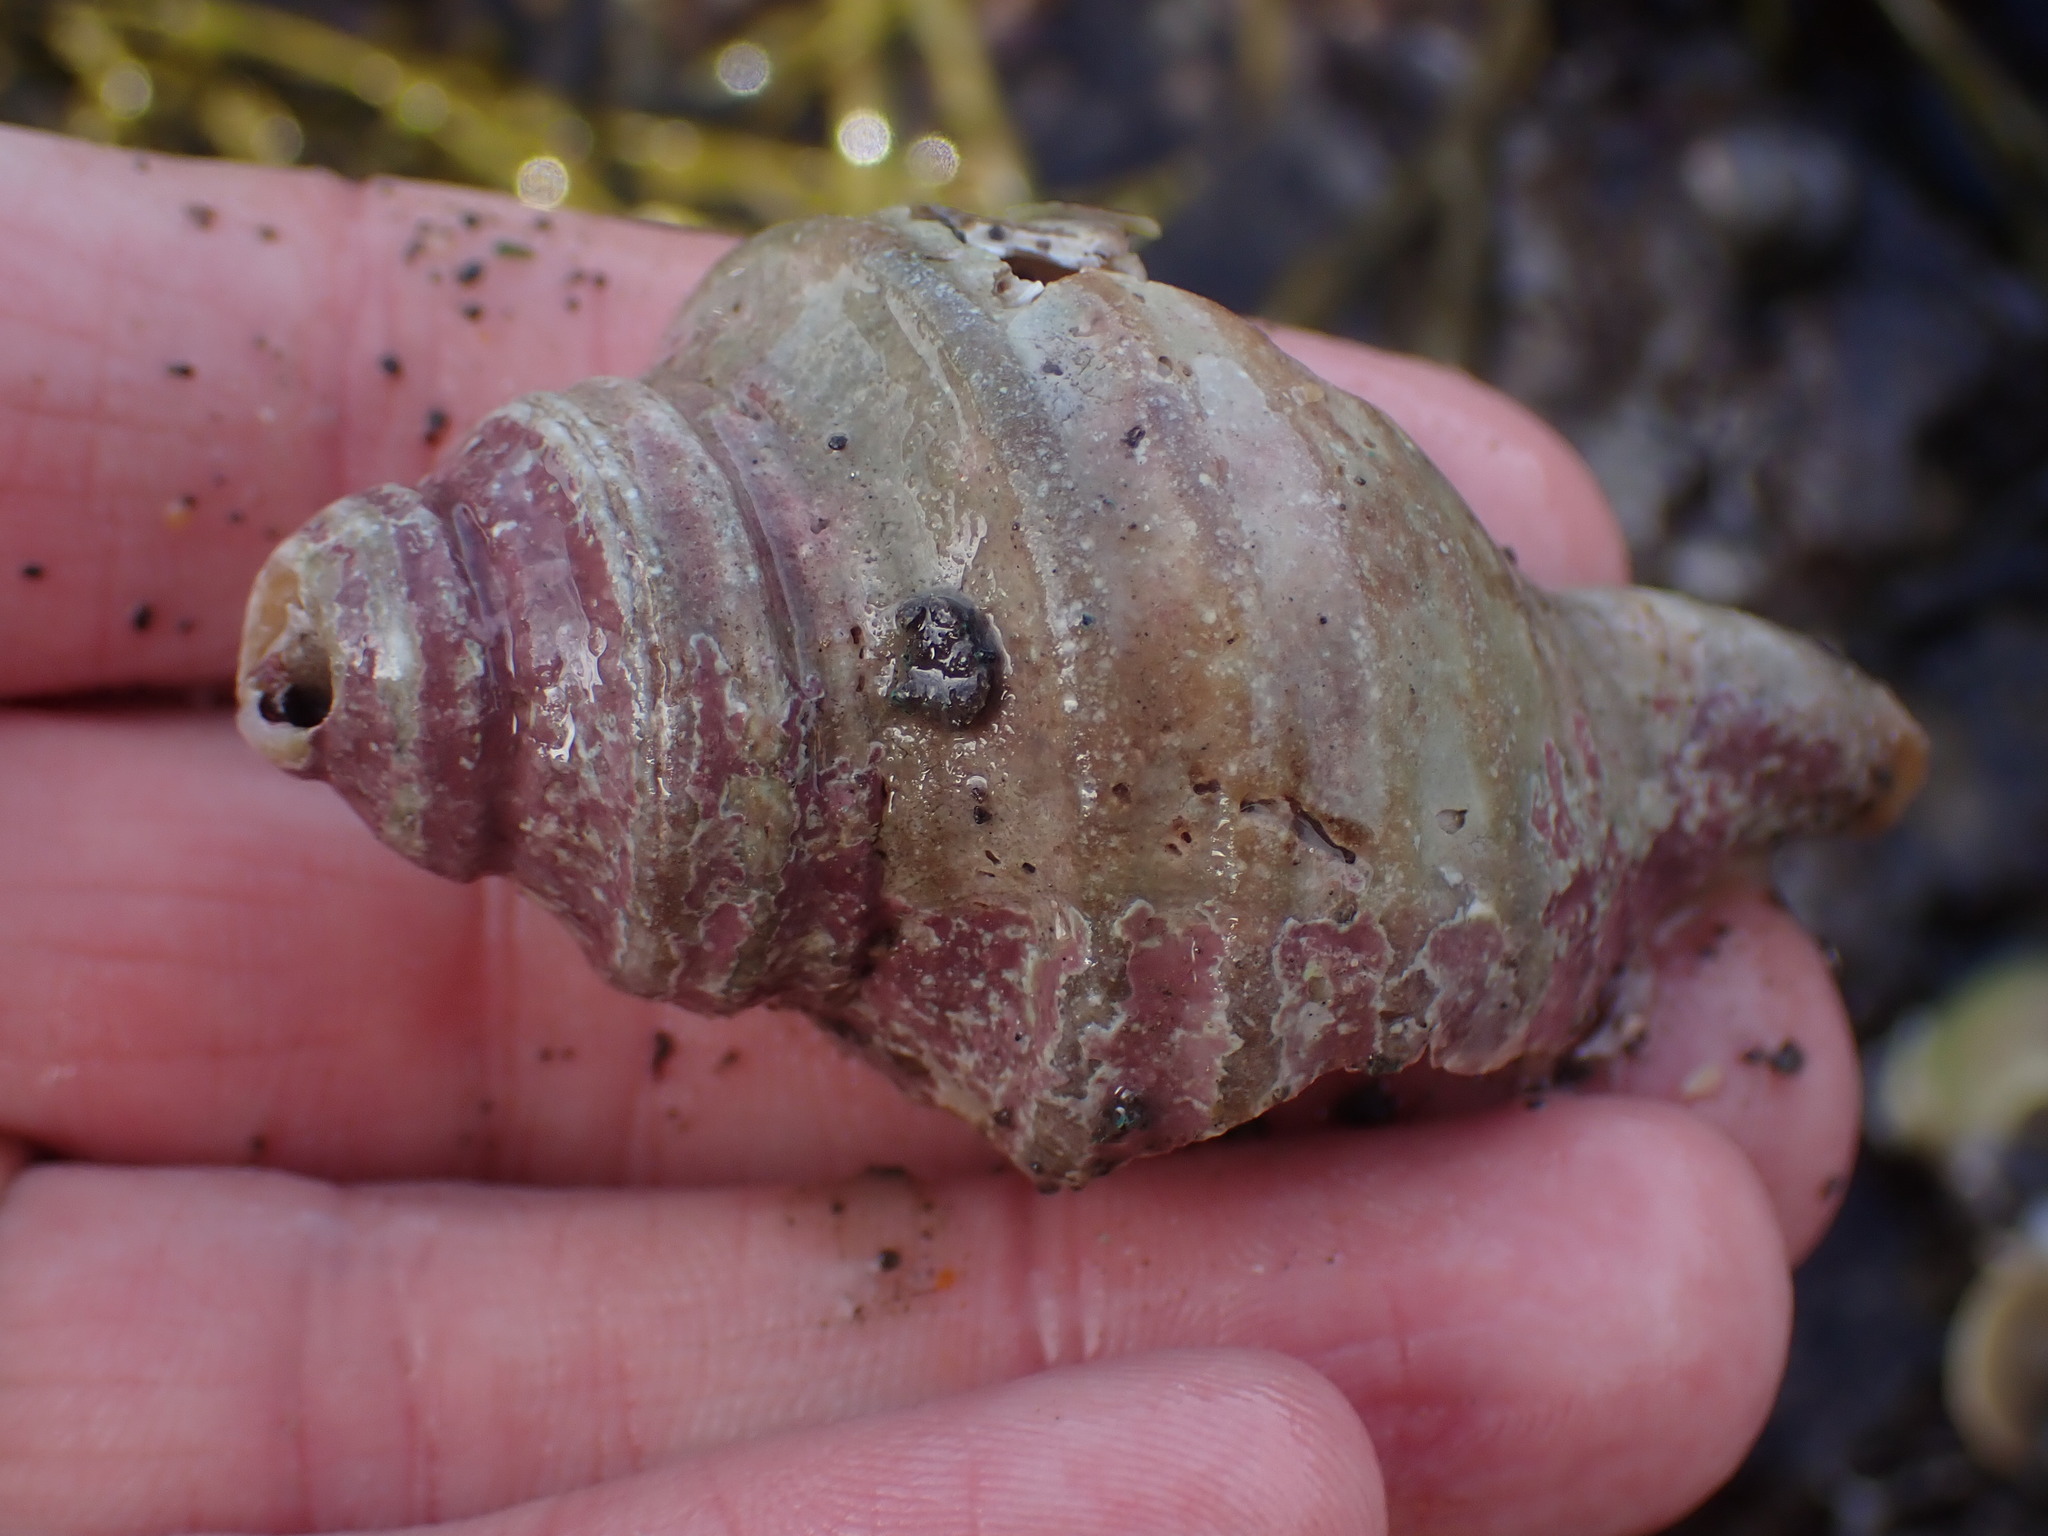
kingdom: Animalia
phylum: Mollusca
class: Gastropoda
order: Neogastropoda
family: Buccinidae
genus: Neptunea
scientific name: Neptunea decemcostata
